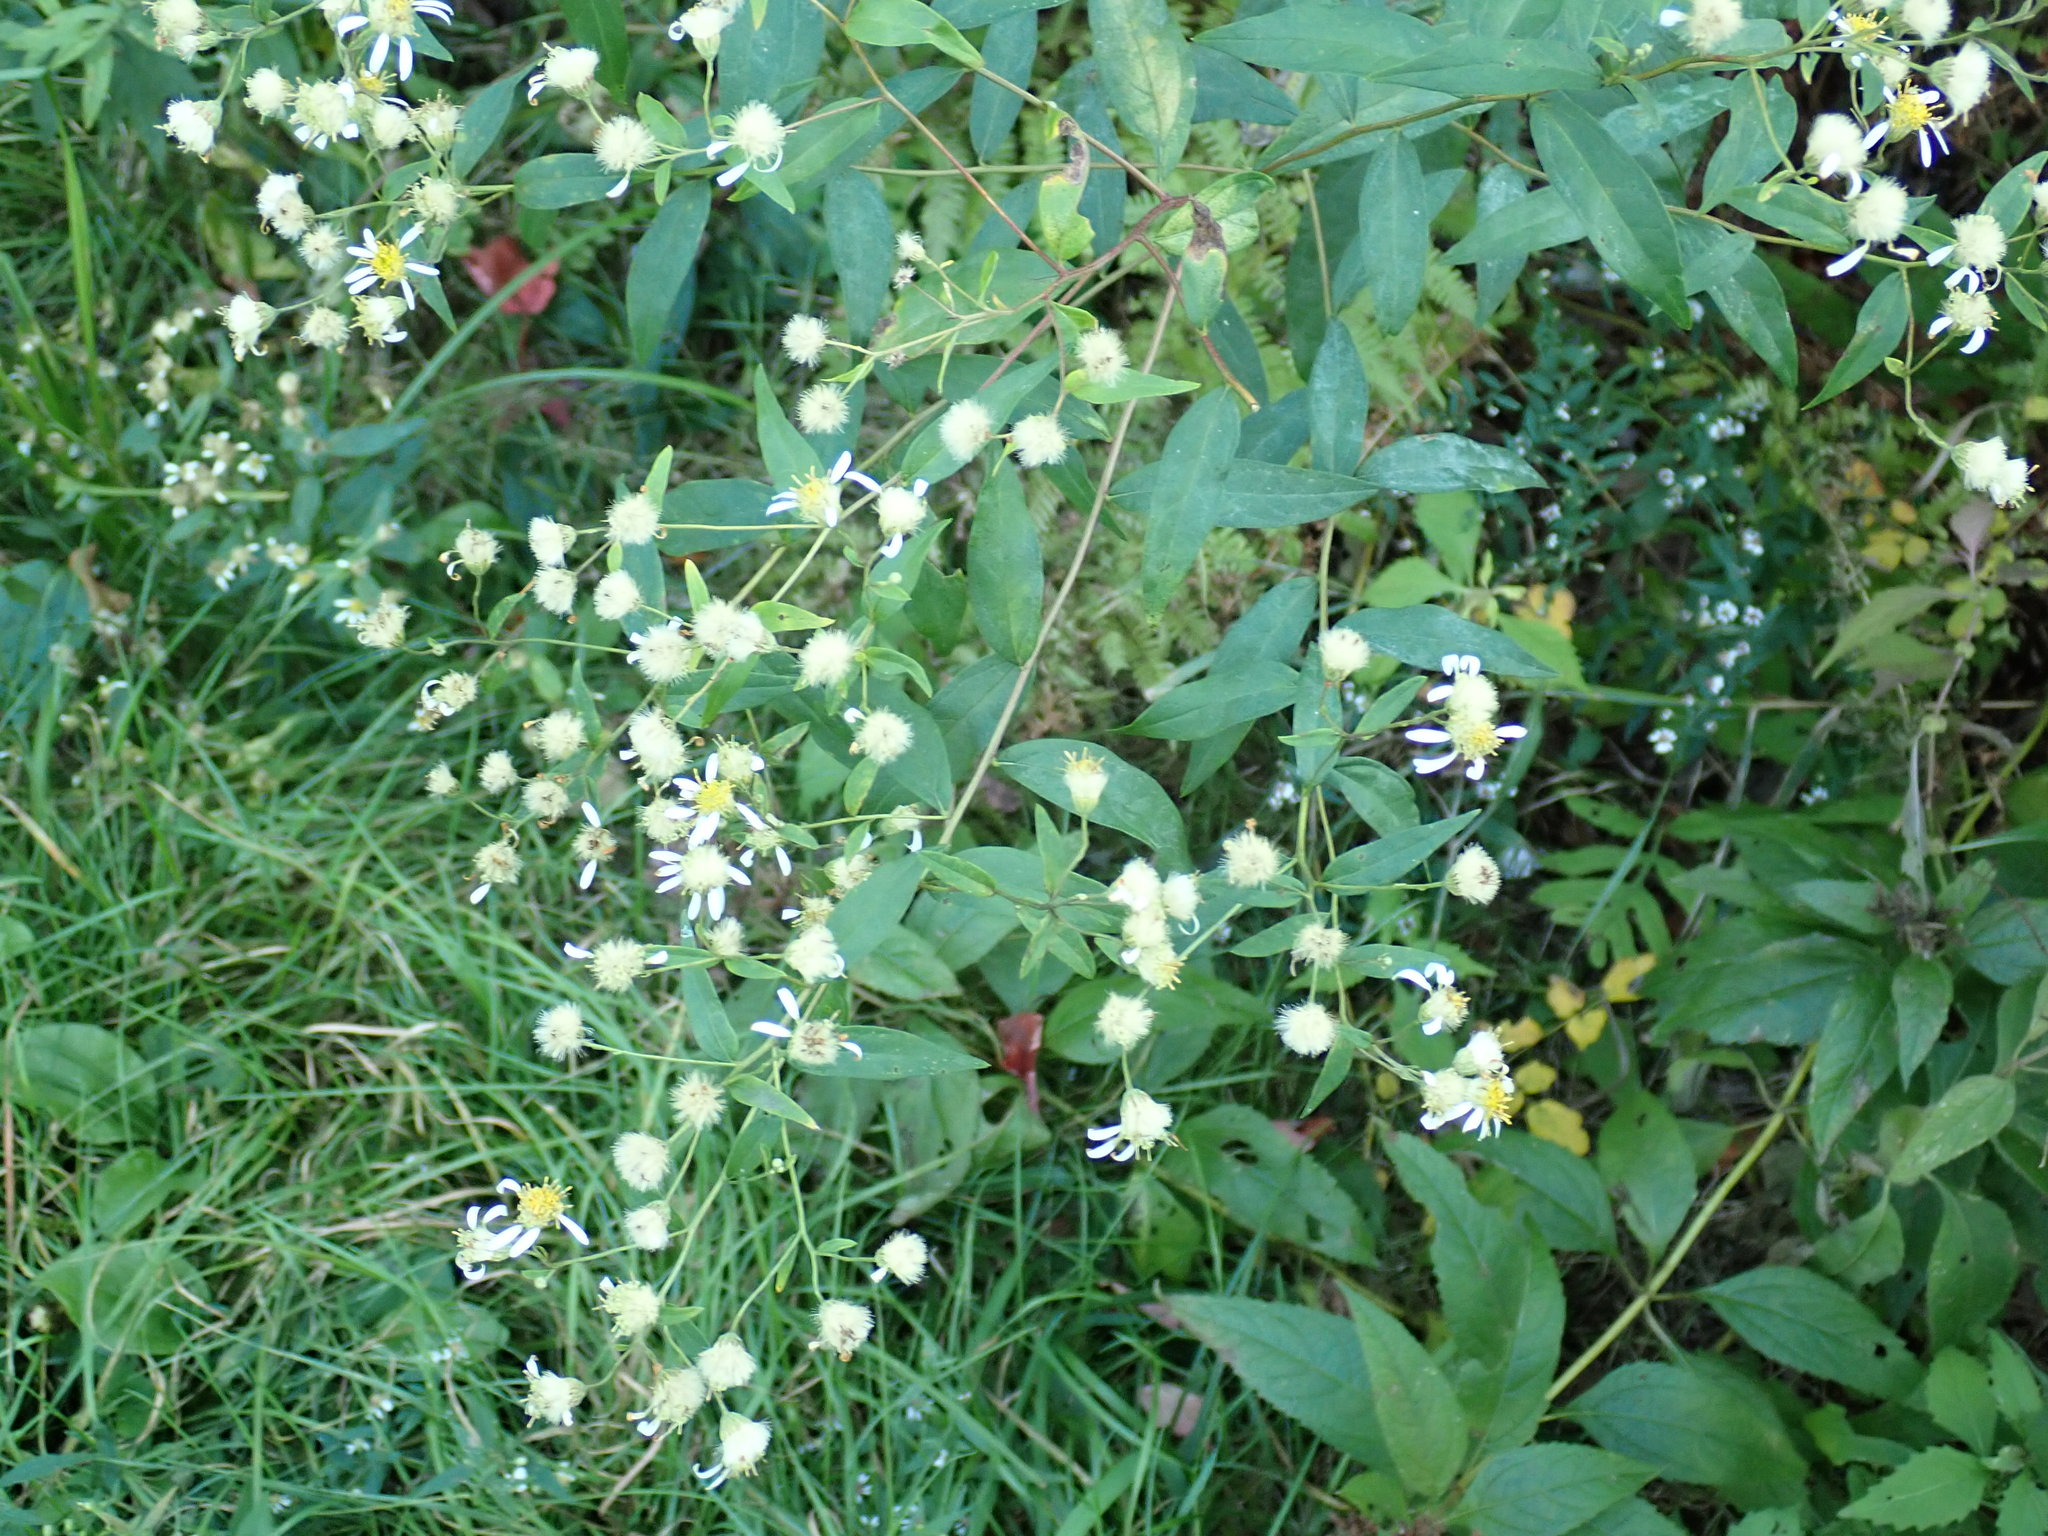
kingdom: Plantae
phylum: Tracheophyta
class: Magnoliopsida
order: Asterales
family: Asteraceae
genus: Doellingeria
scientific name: Doellingeria umbellata
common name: Flat-top white aster
